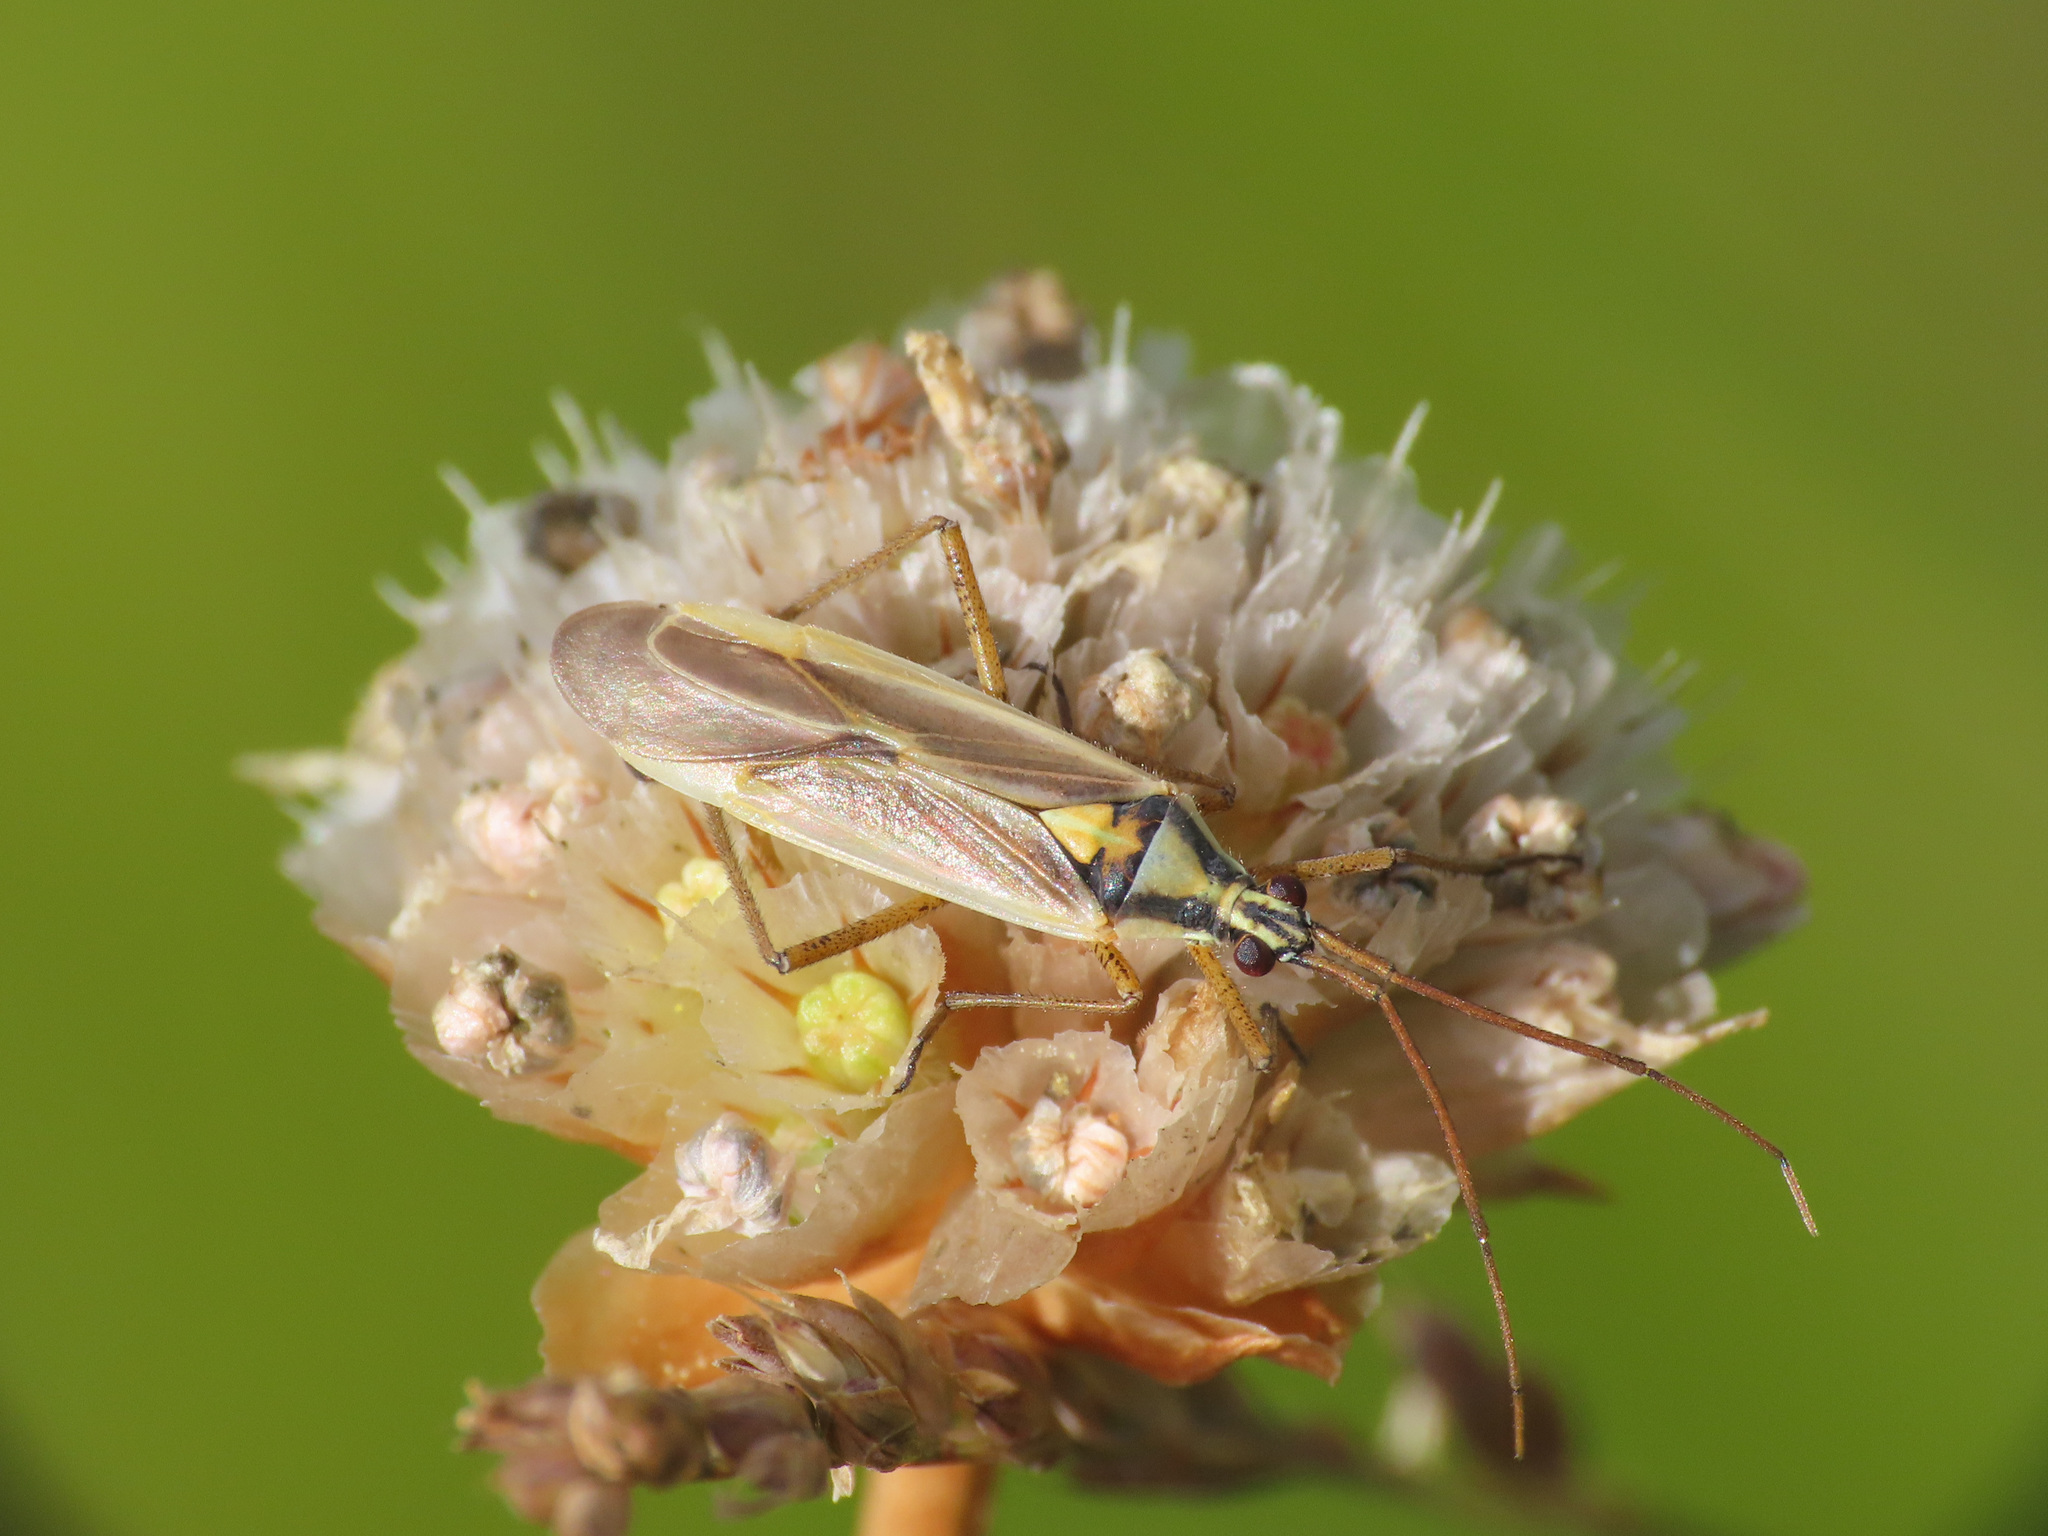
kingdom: Animalia
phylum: Arthropoda
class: Insecta
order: Hemiptera
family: Miridae
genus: Leptopterna
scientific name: Leptopterna ferrugata
